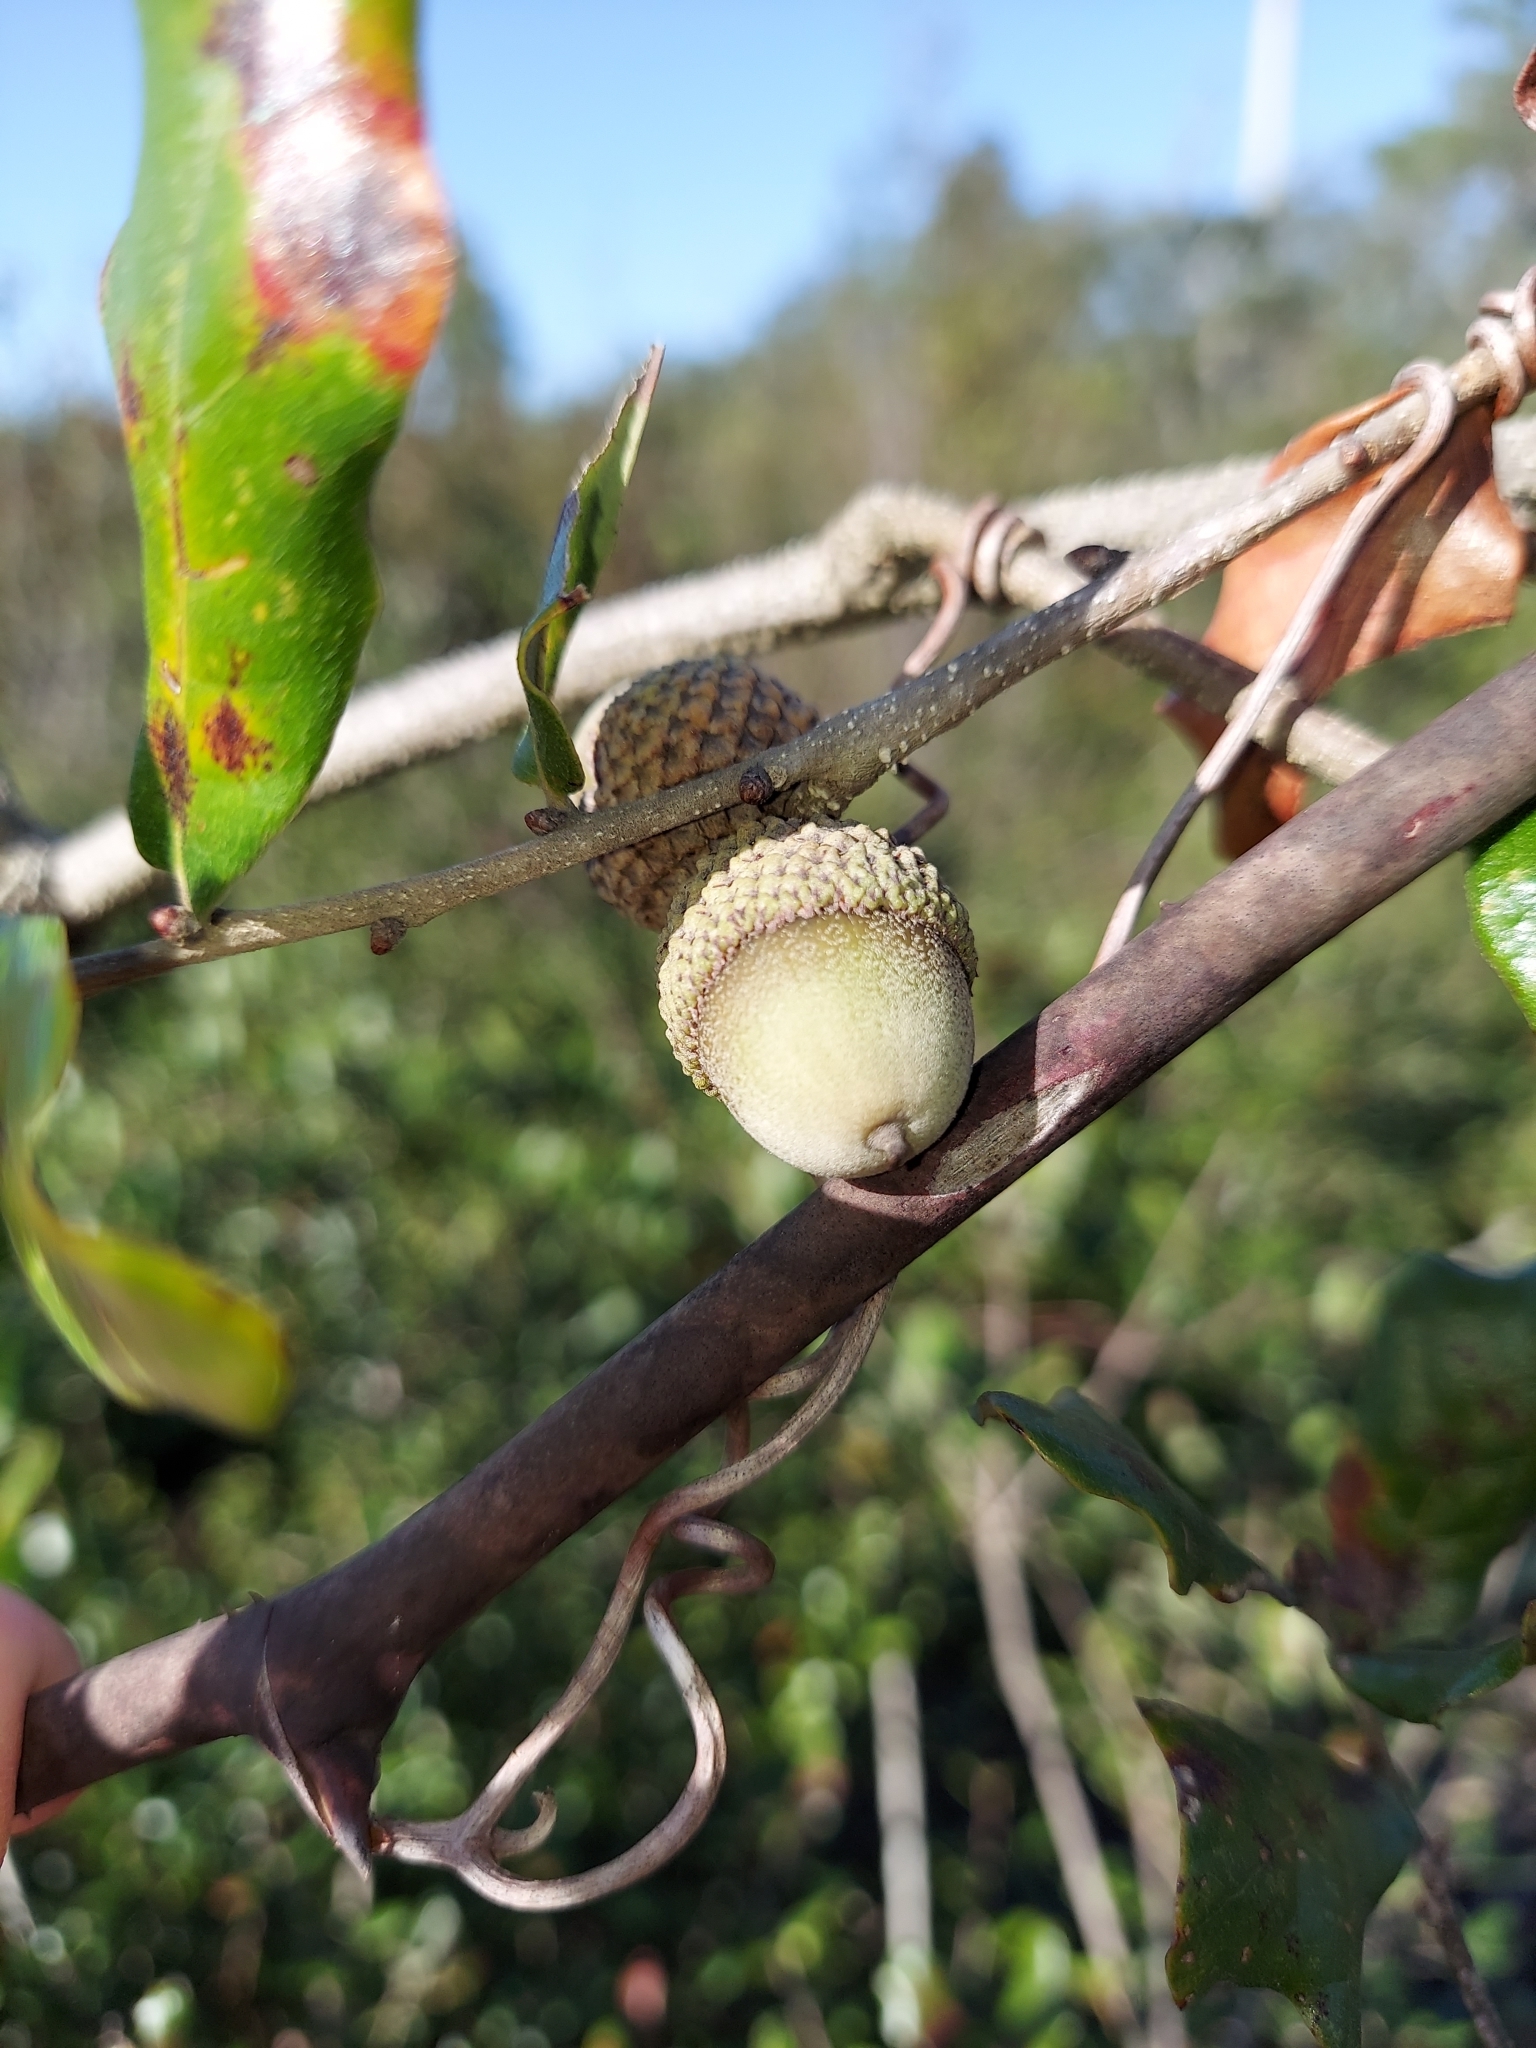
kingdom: Plantae
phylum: Tracheophyta
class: Magnoliopsida
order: Fagales
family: Fagaceae
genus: Quercus
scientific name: Quercus chapmanii
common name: Chapman oak
